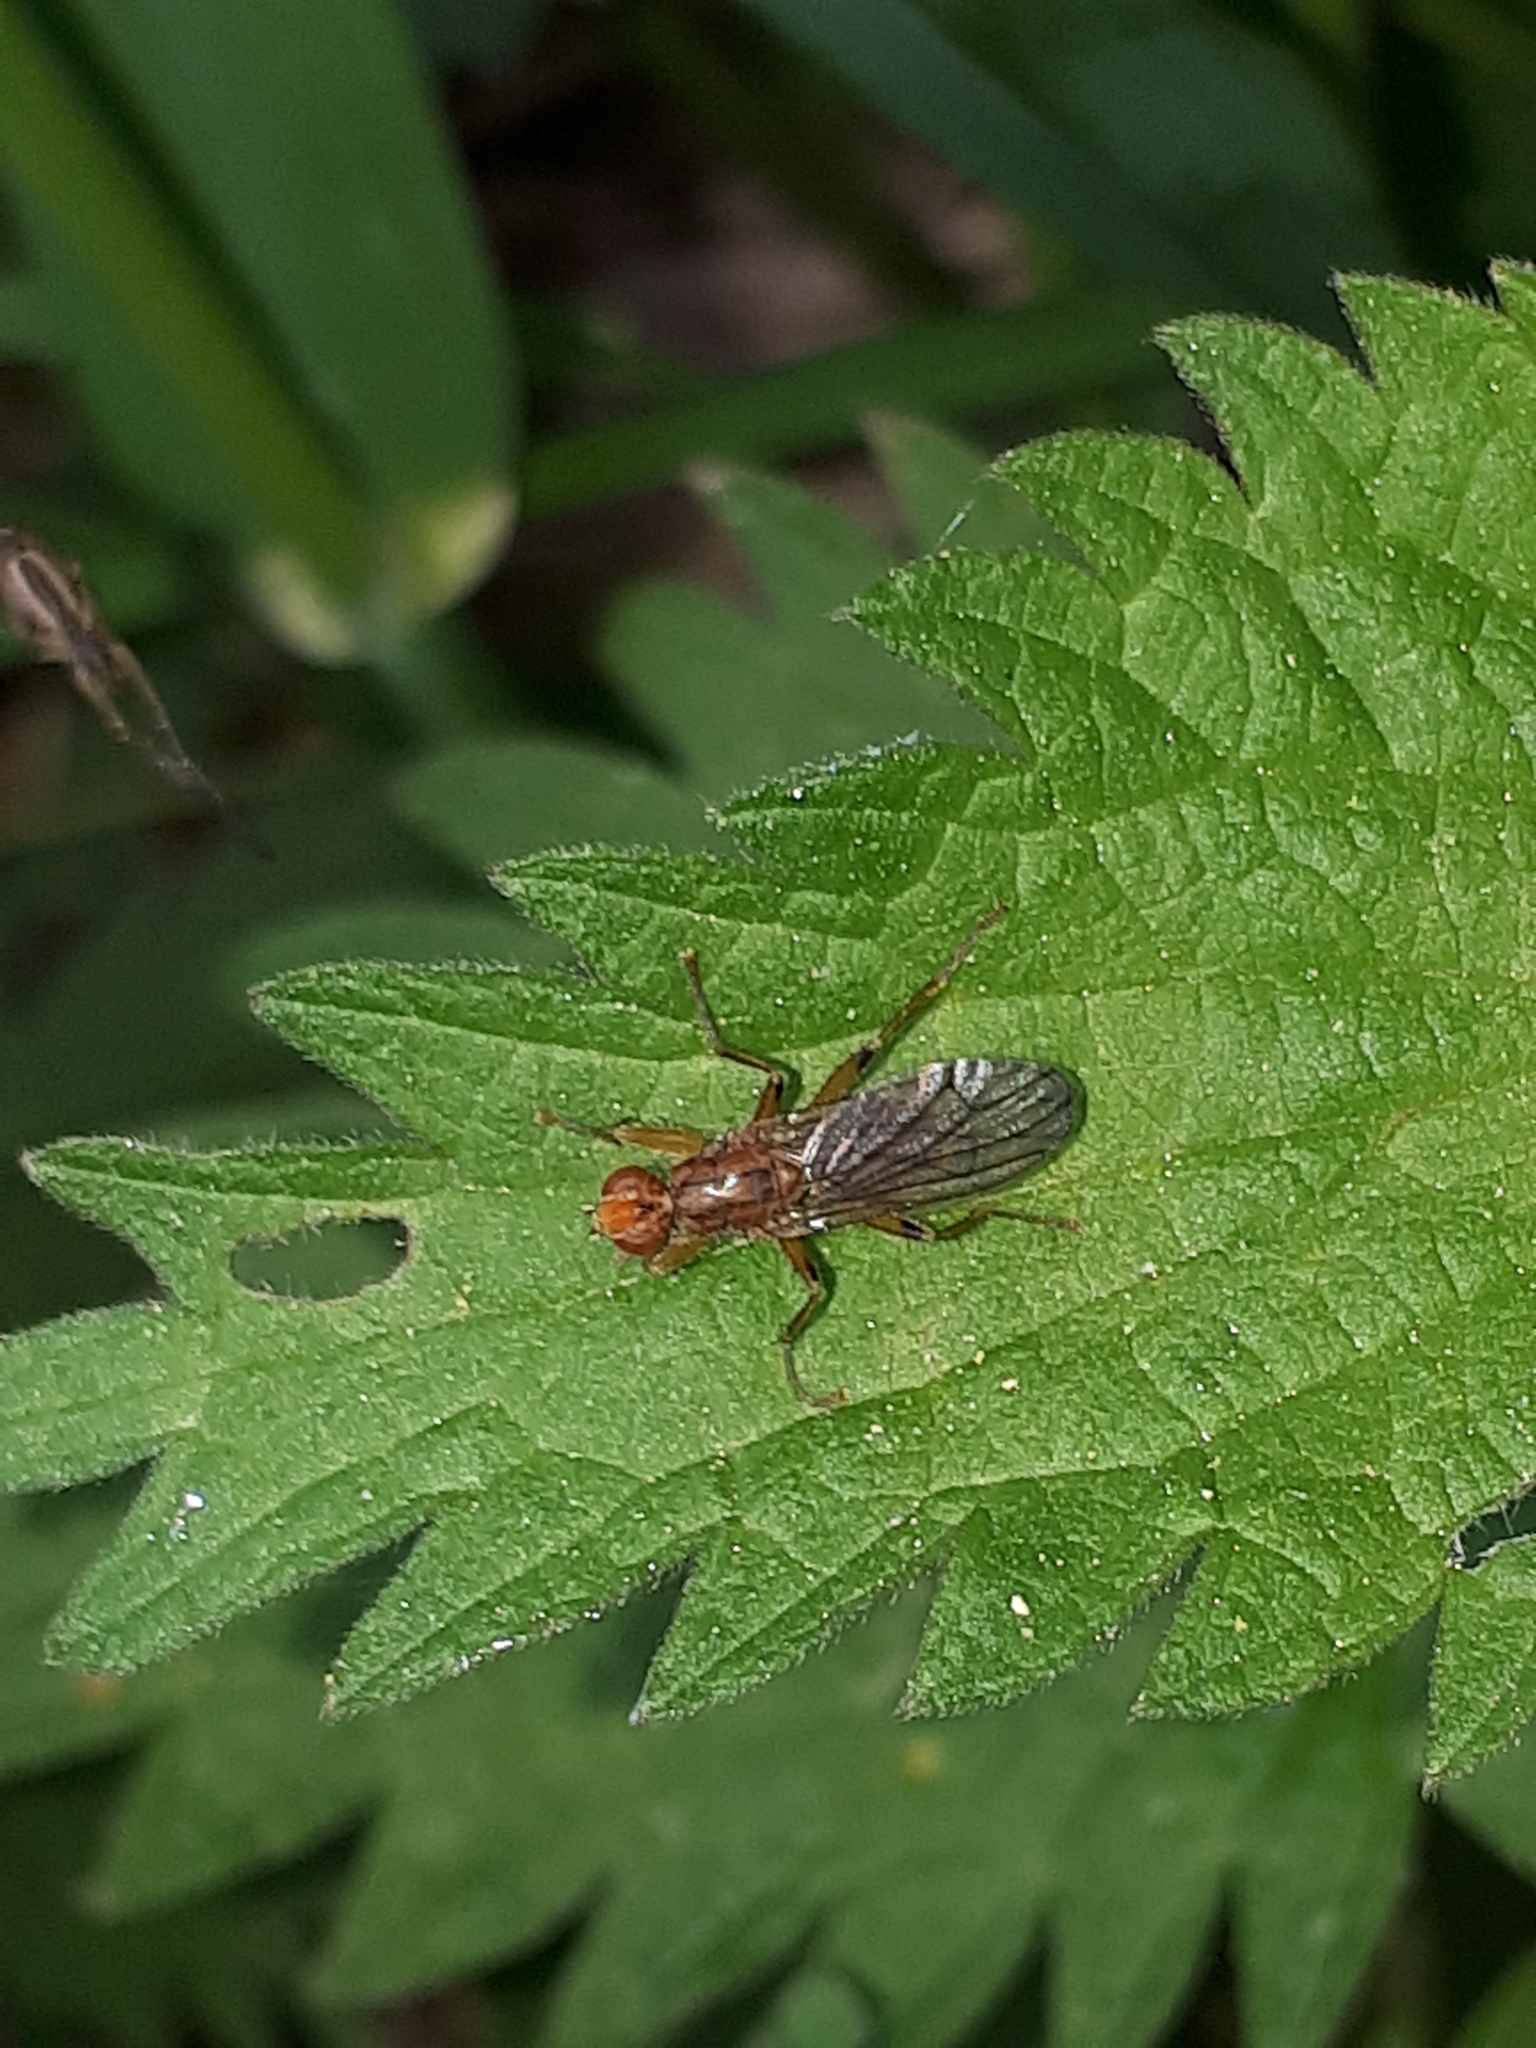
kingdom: Animalia
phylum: Arthropoda
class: Insecta
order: Diptera
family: Scathophagidae
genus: Norellisoma
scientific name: Norellisoma spinimanum
